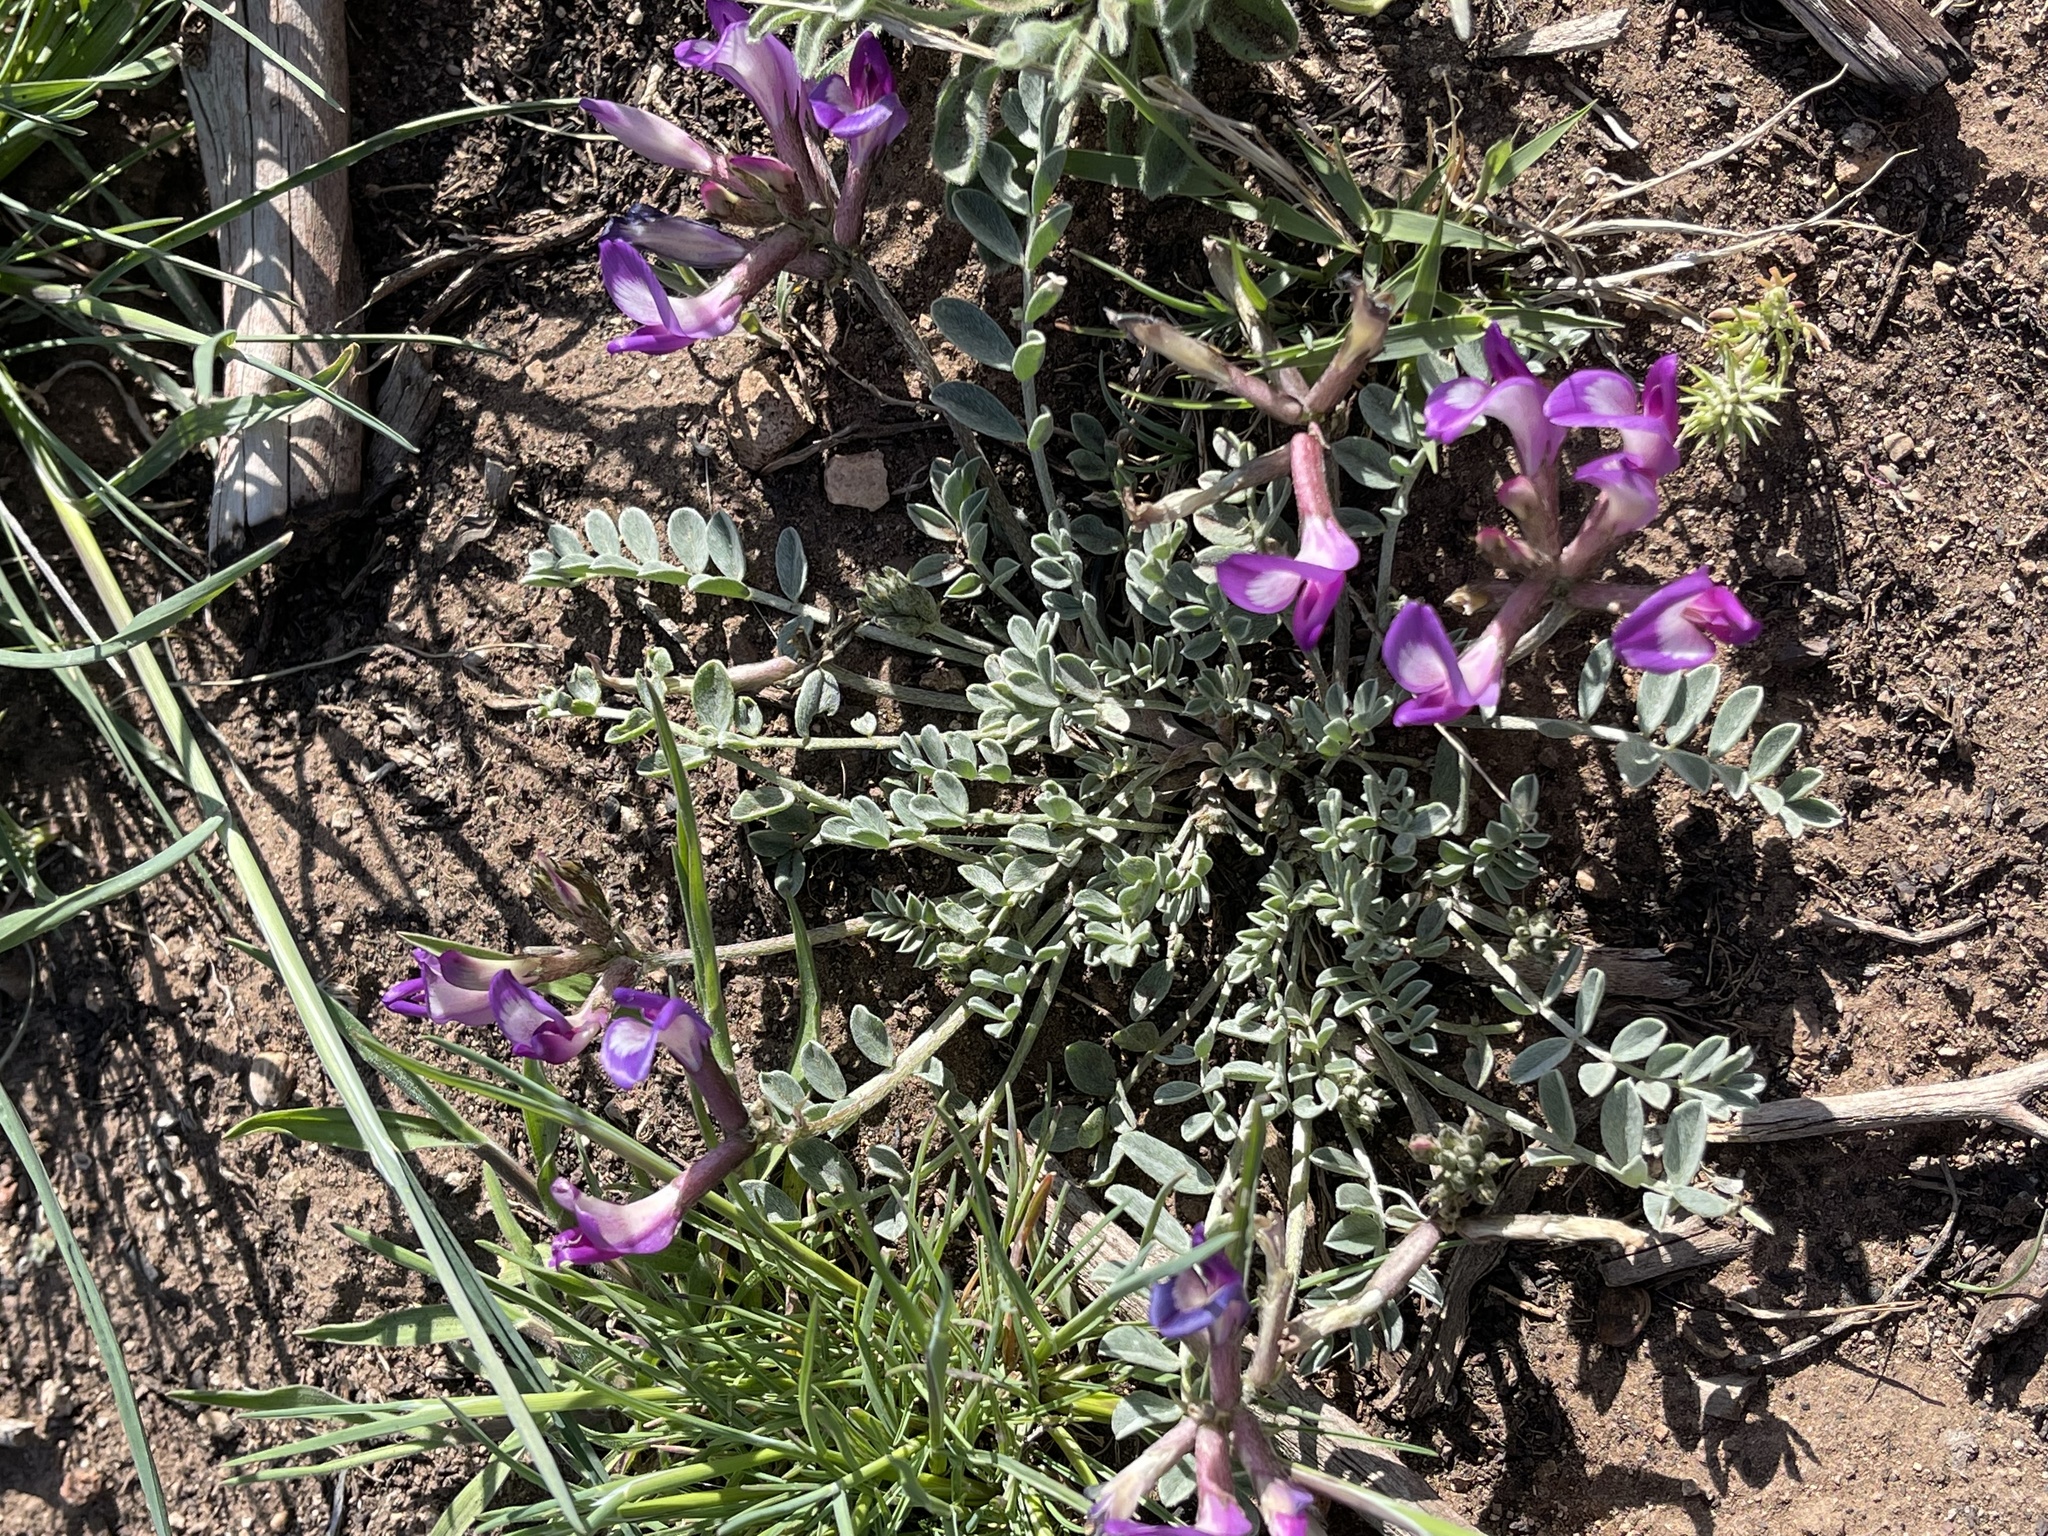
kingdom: Plantae
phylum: Tracheophyta
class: Magnoliopsida
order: Fabales
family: Fabaceae
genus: Astragalus
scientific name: Astragalus amphioxys
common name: Crescent milk-vetch
